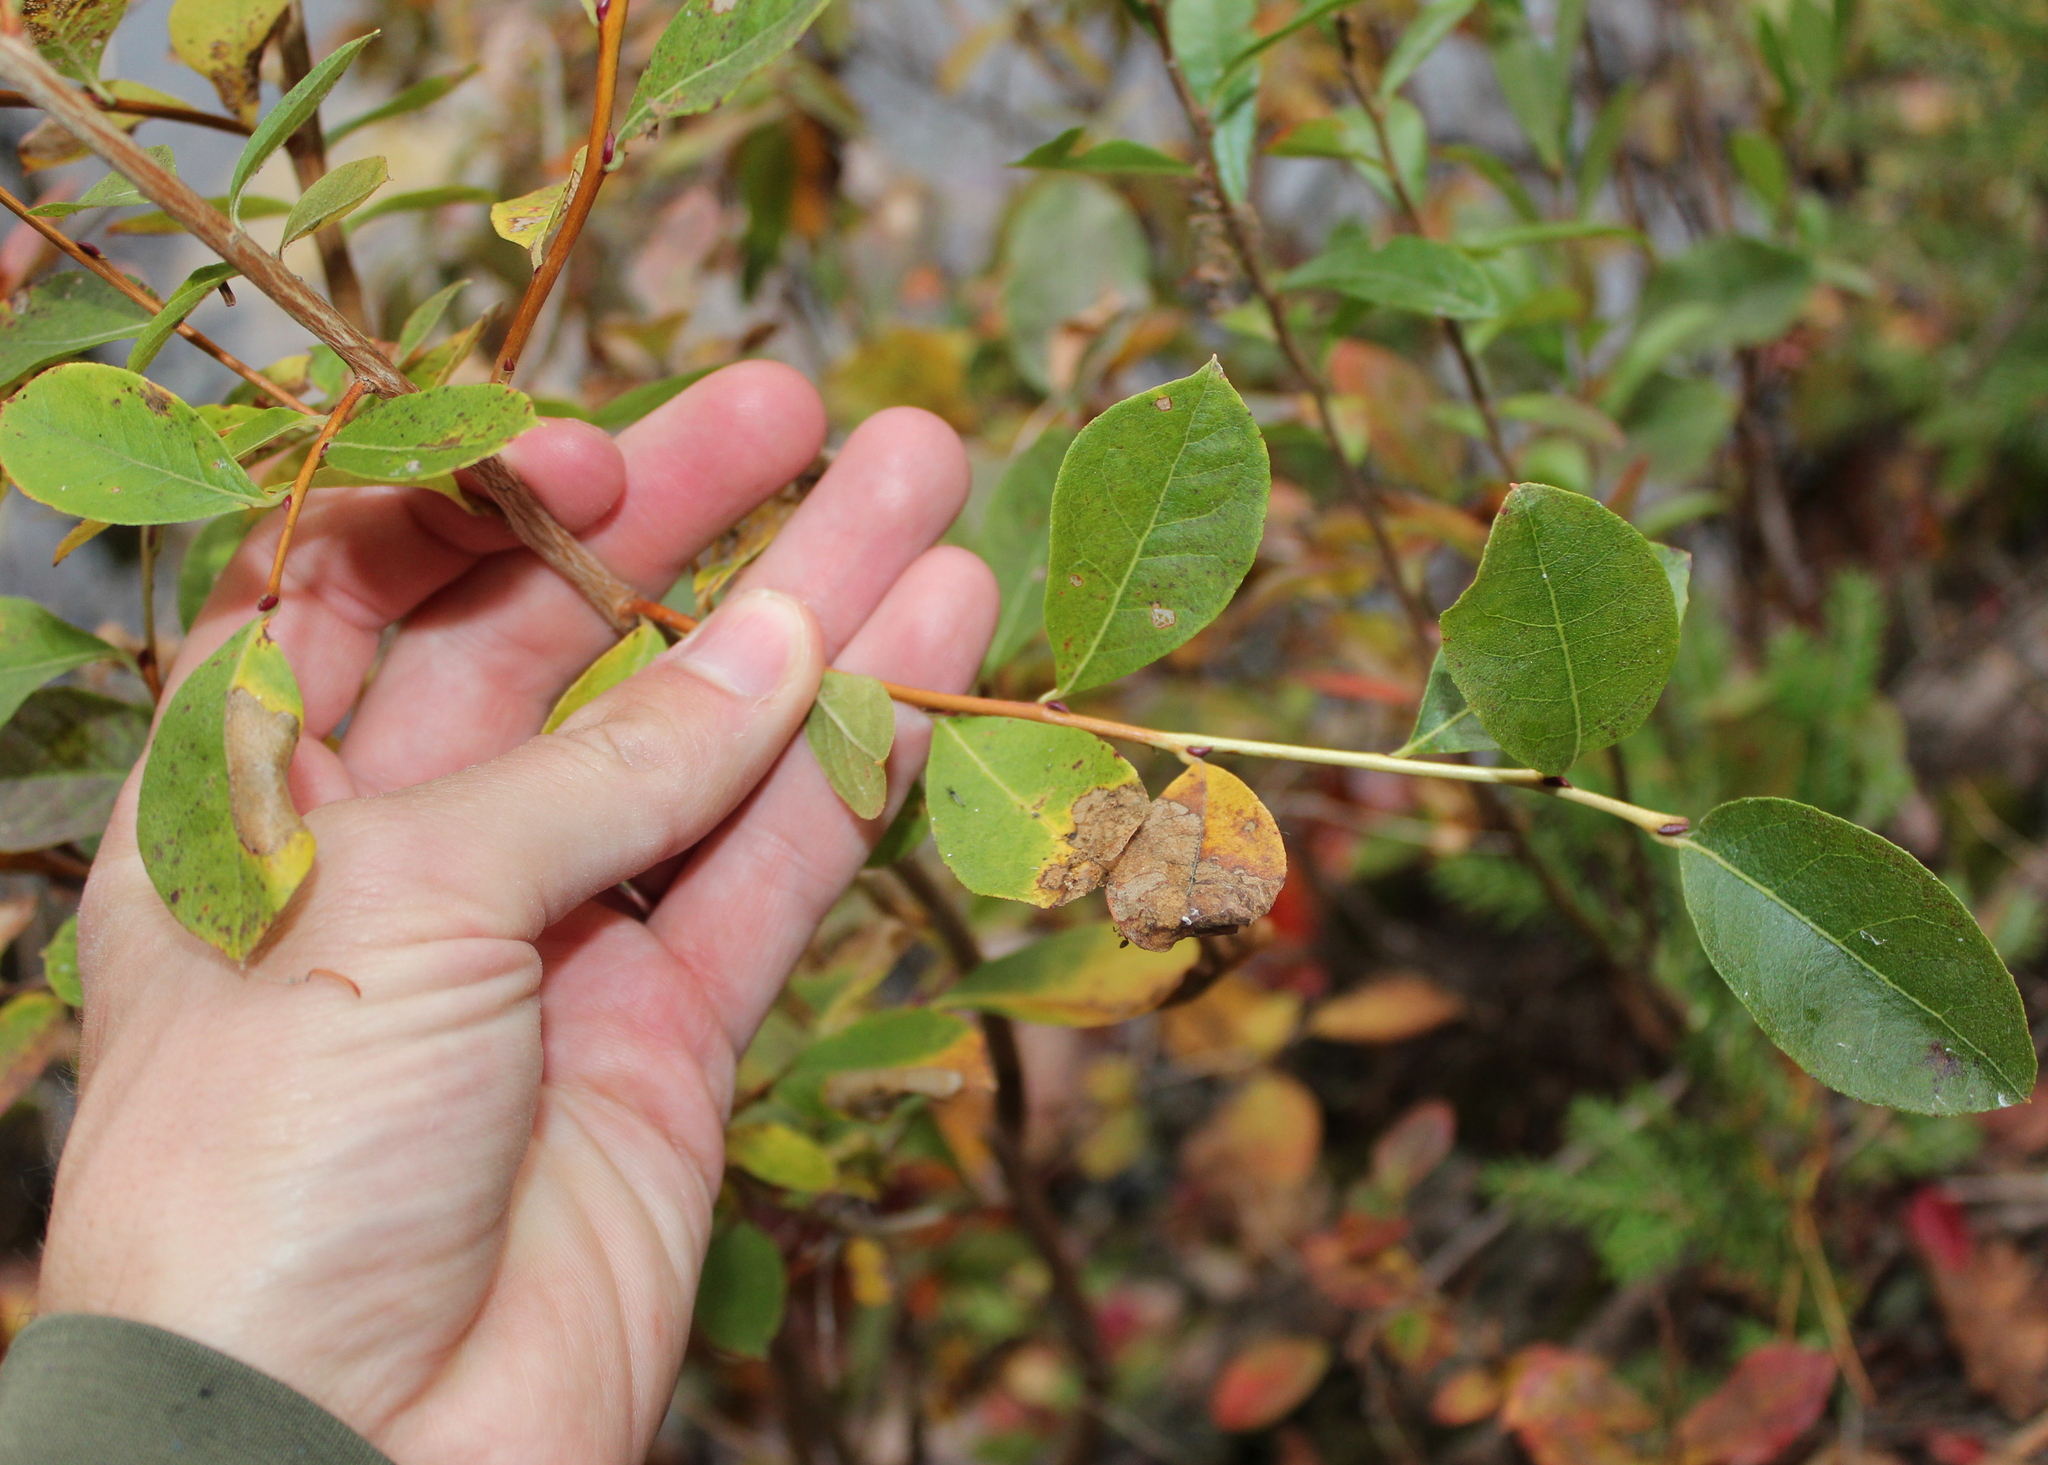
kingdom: Plantae
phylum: Tracheophyta
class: Magnoliopsida
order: Ericales
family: Ericaceae
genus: Lyonia
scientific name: Lyonia ligustrina
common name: Maleberry
